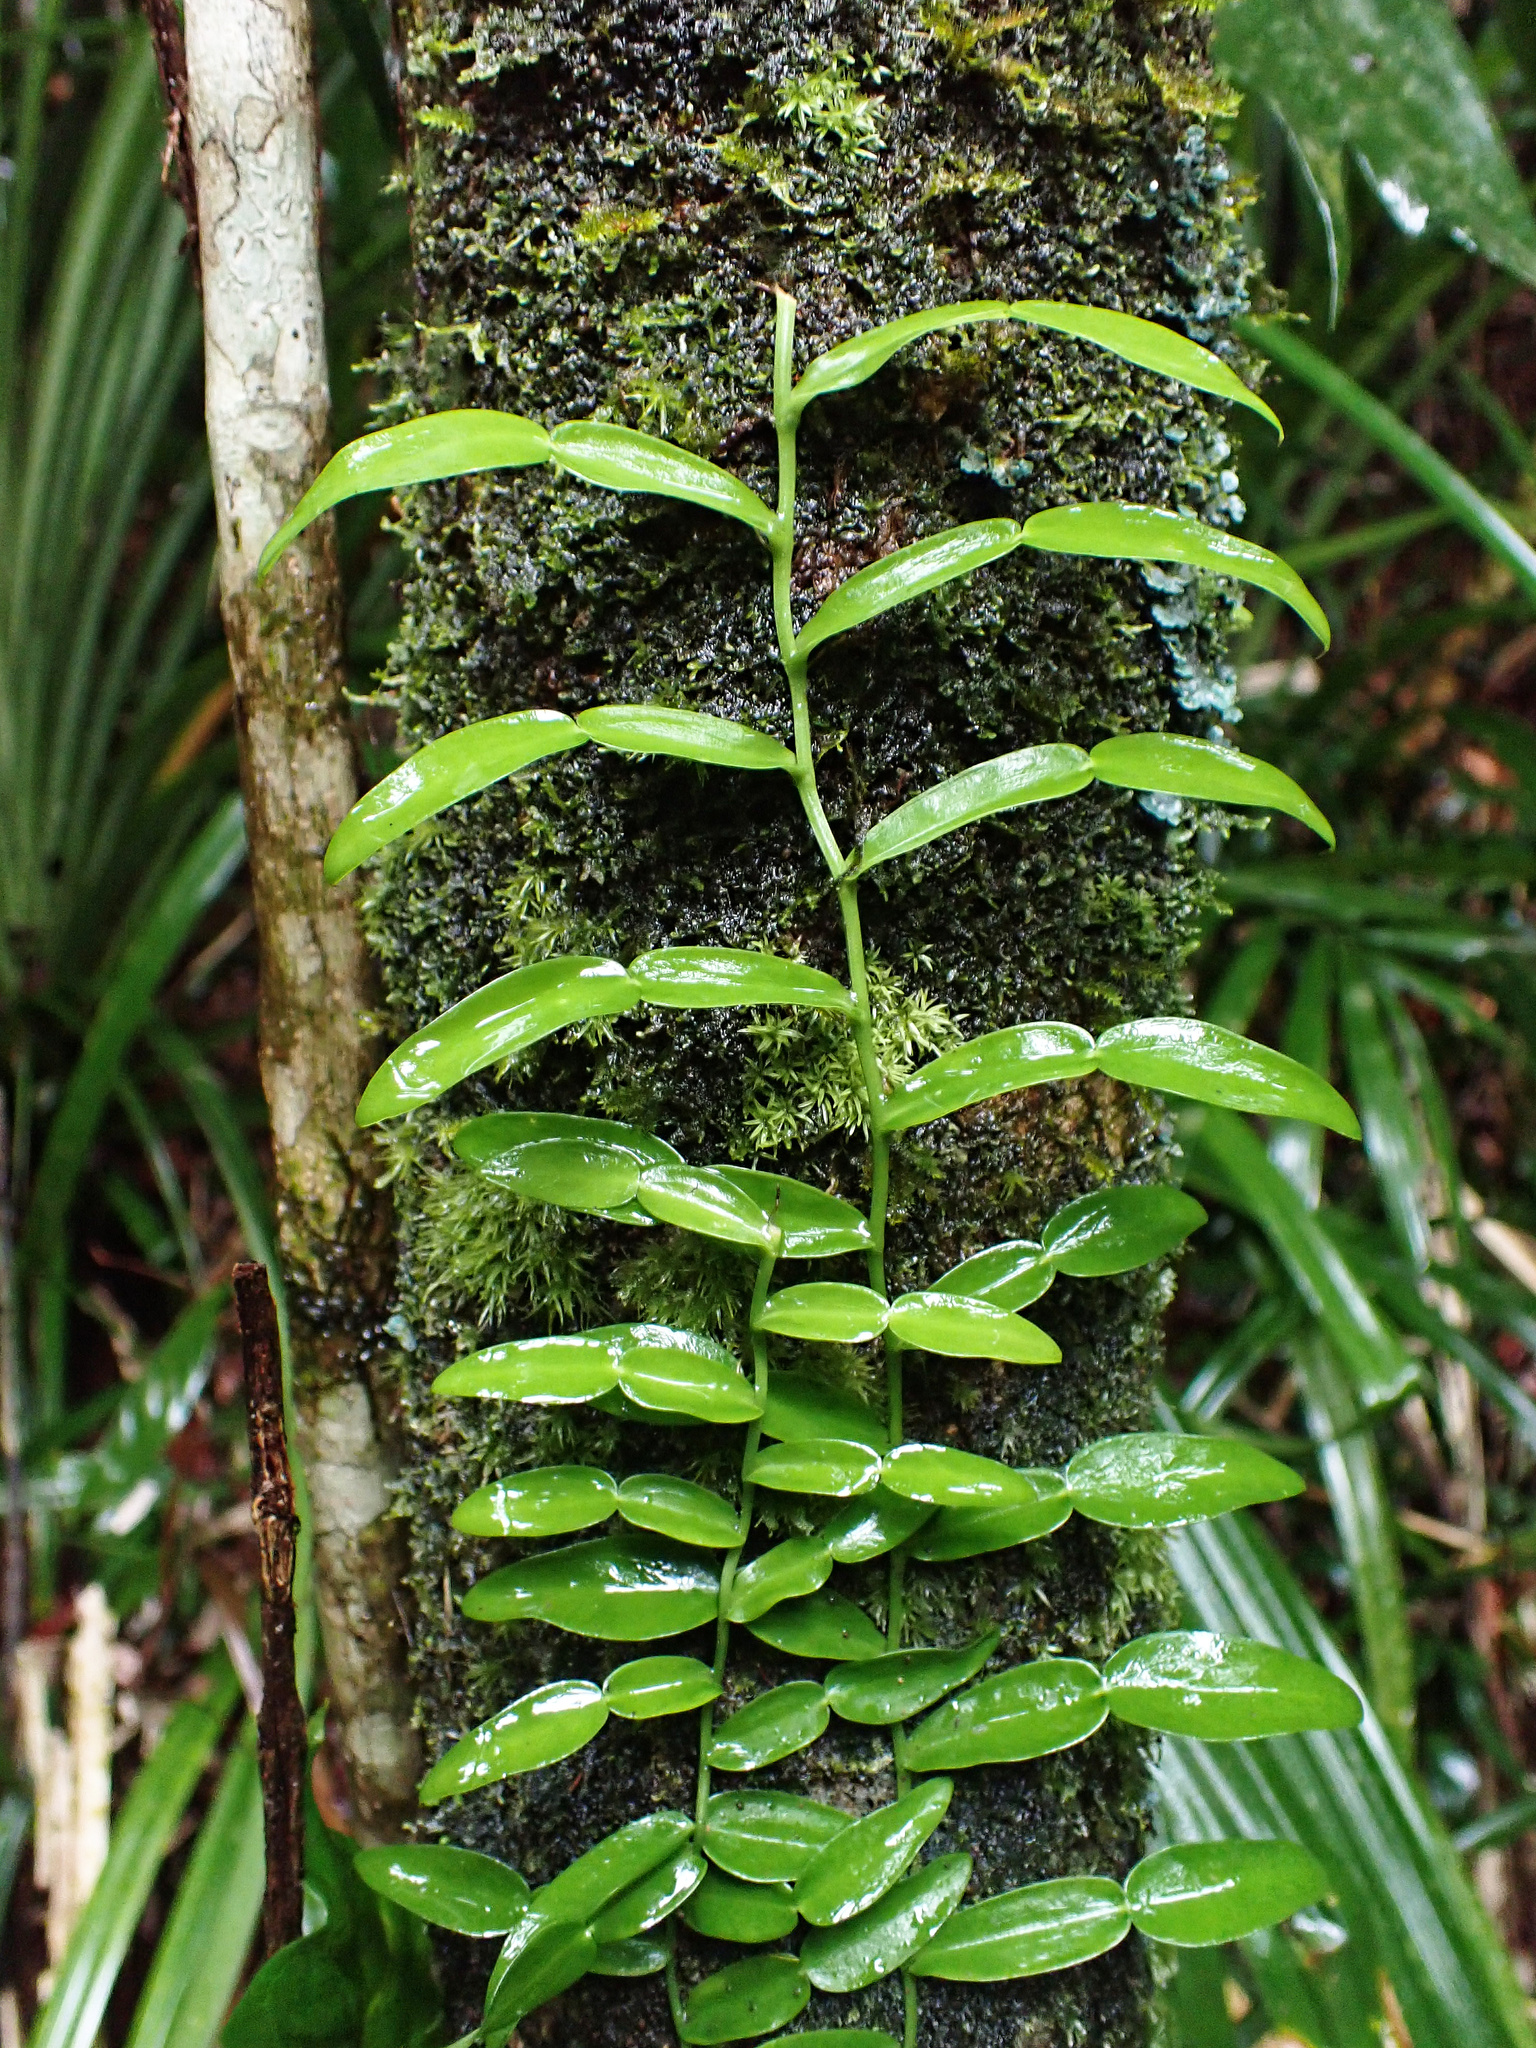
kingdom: Plantae
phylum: Tracheophyta
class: Liliopsida
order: Alismatales
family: Araceae
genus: Pothos
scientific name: Pothos longipes
